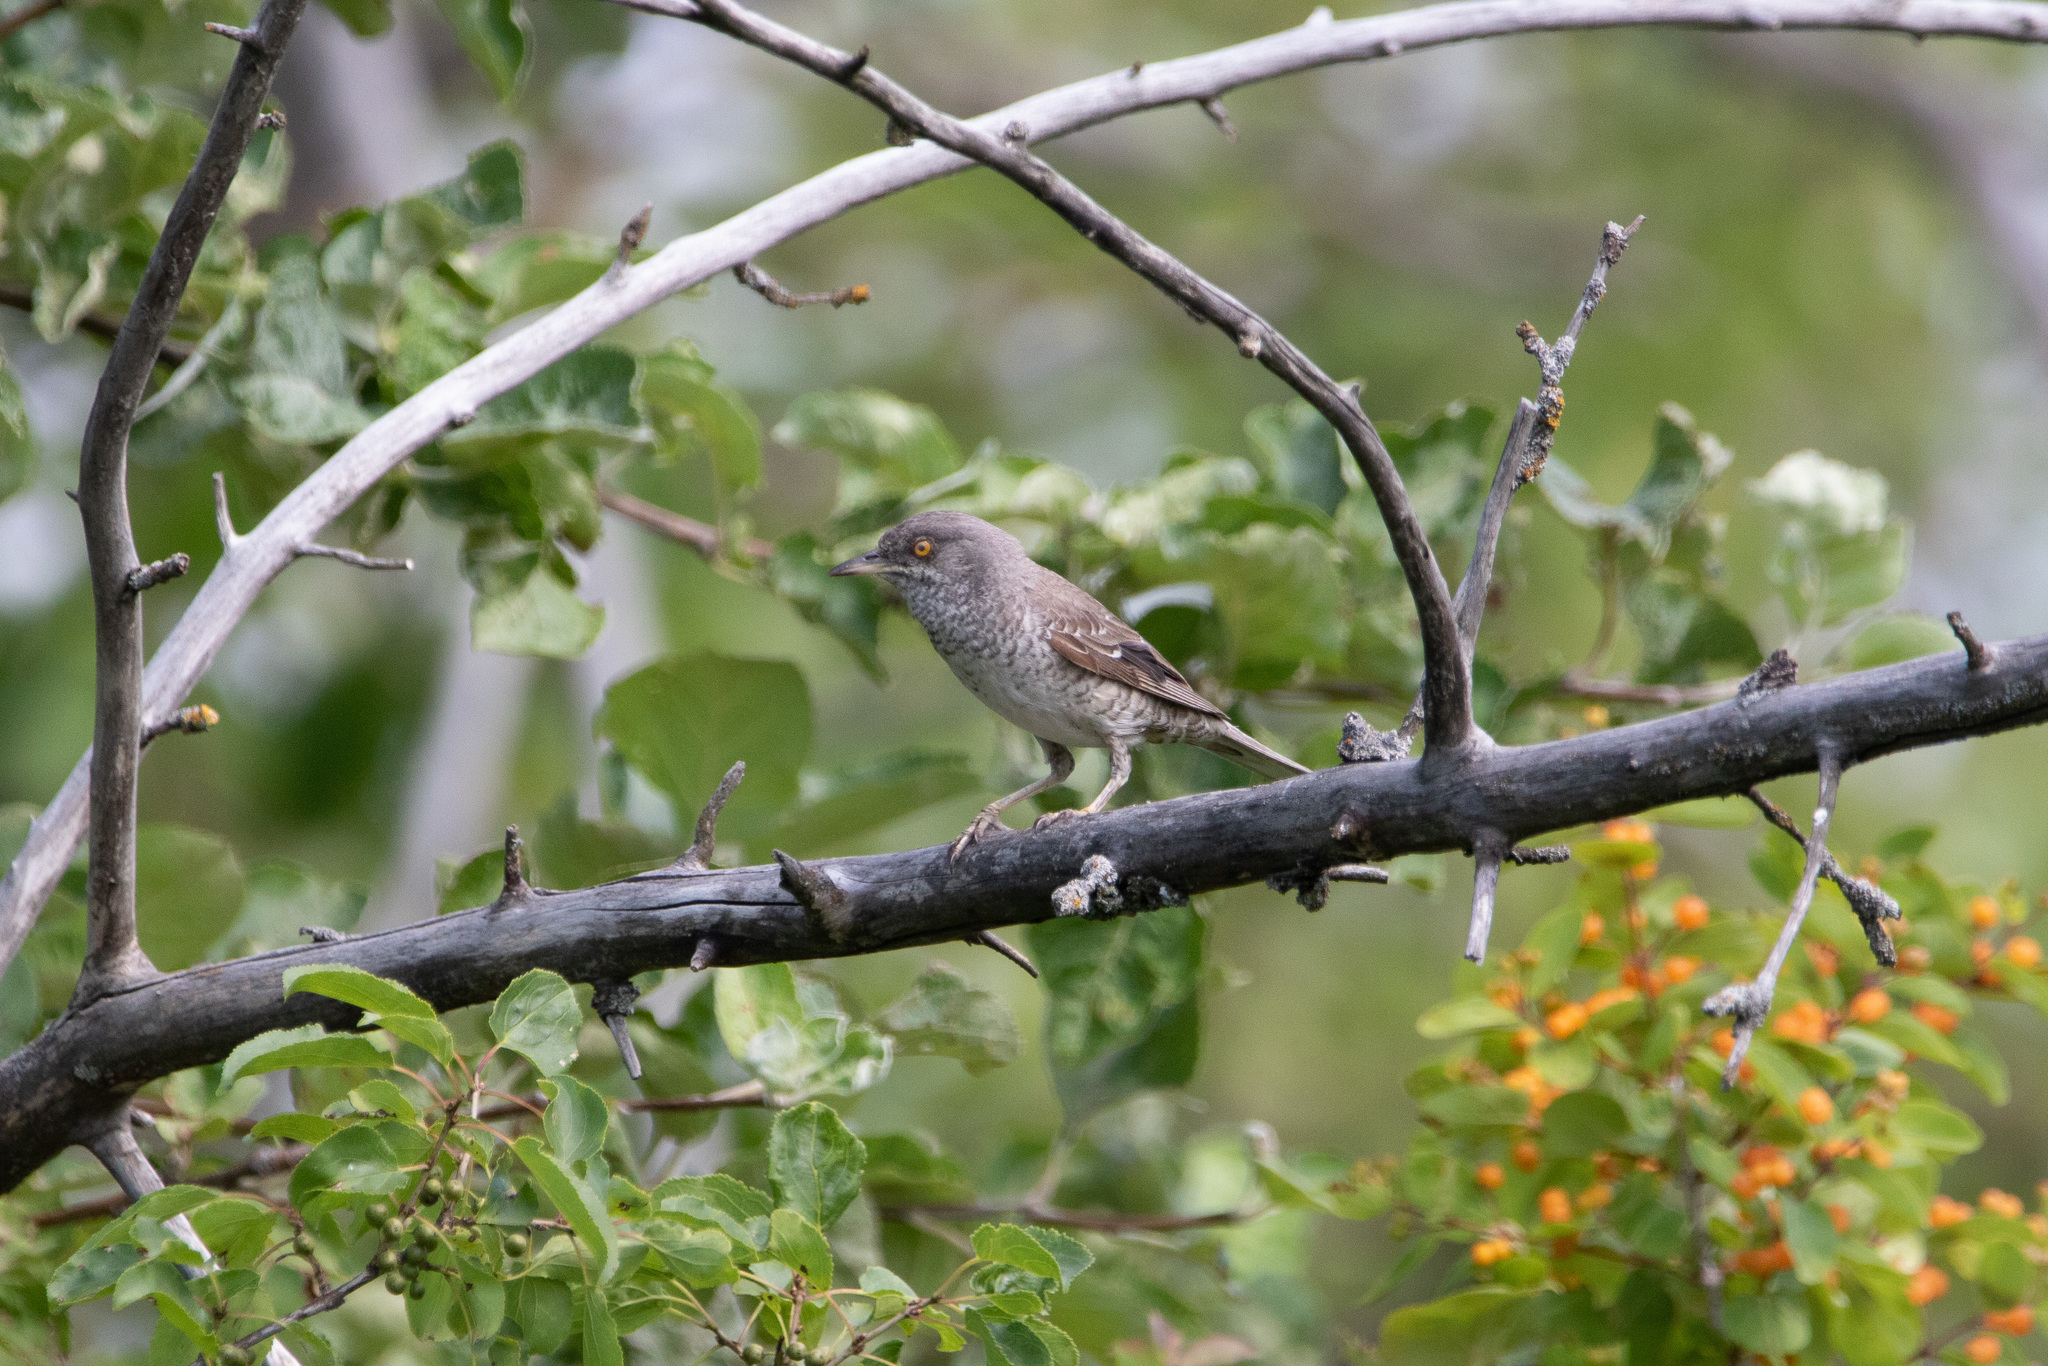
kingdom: Animalia
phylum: Chordata
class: Aves
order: Passeriformes
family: Sylviidae
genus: Sylvia
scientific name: Sylvia nisoria
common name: Barred warbler
